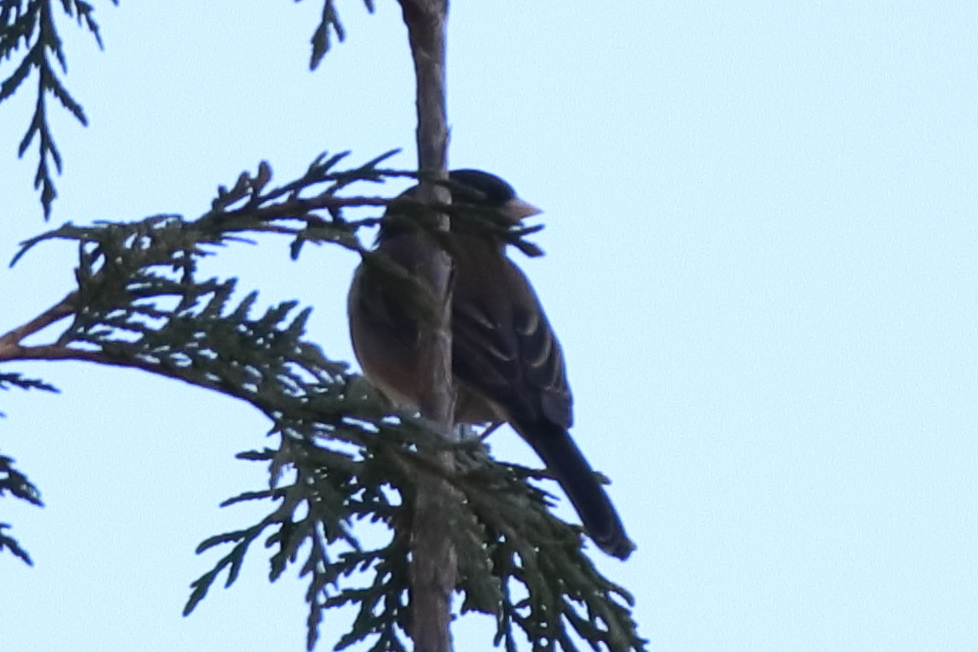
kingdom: Animalia
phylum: Chordata
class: Aves
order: Passeriformes
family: Passerellidae
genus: Junco
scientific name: Junco hyemalis
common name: Dark-eyed junco
